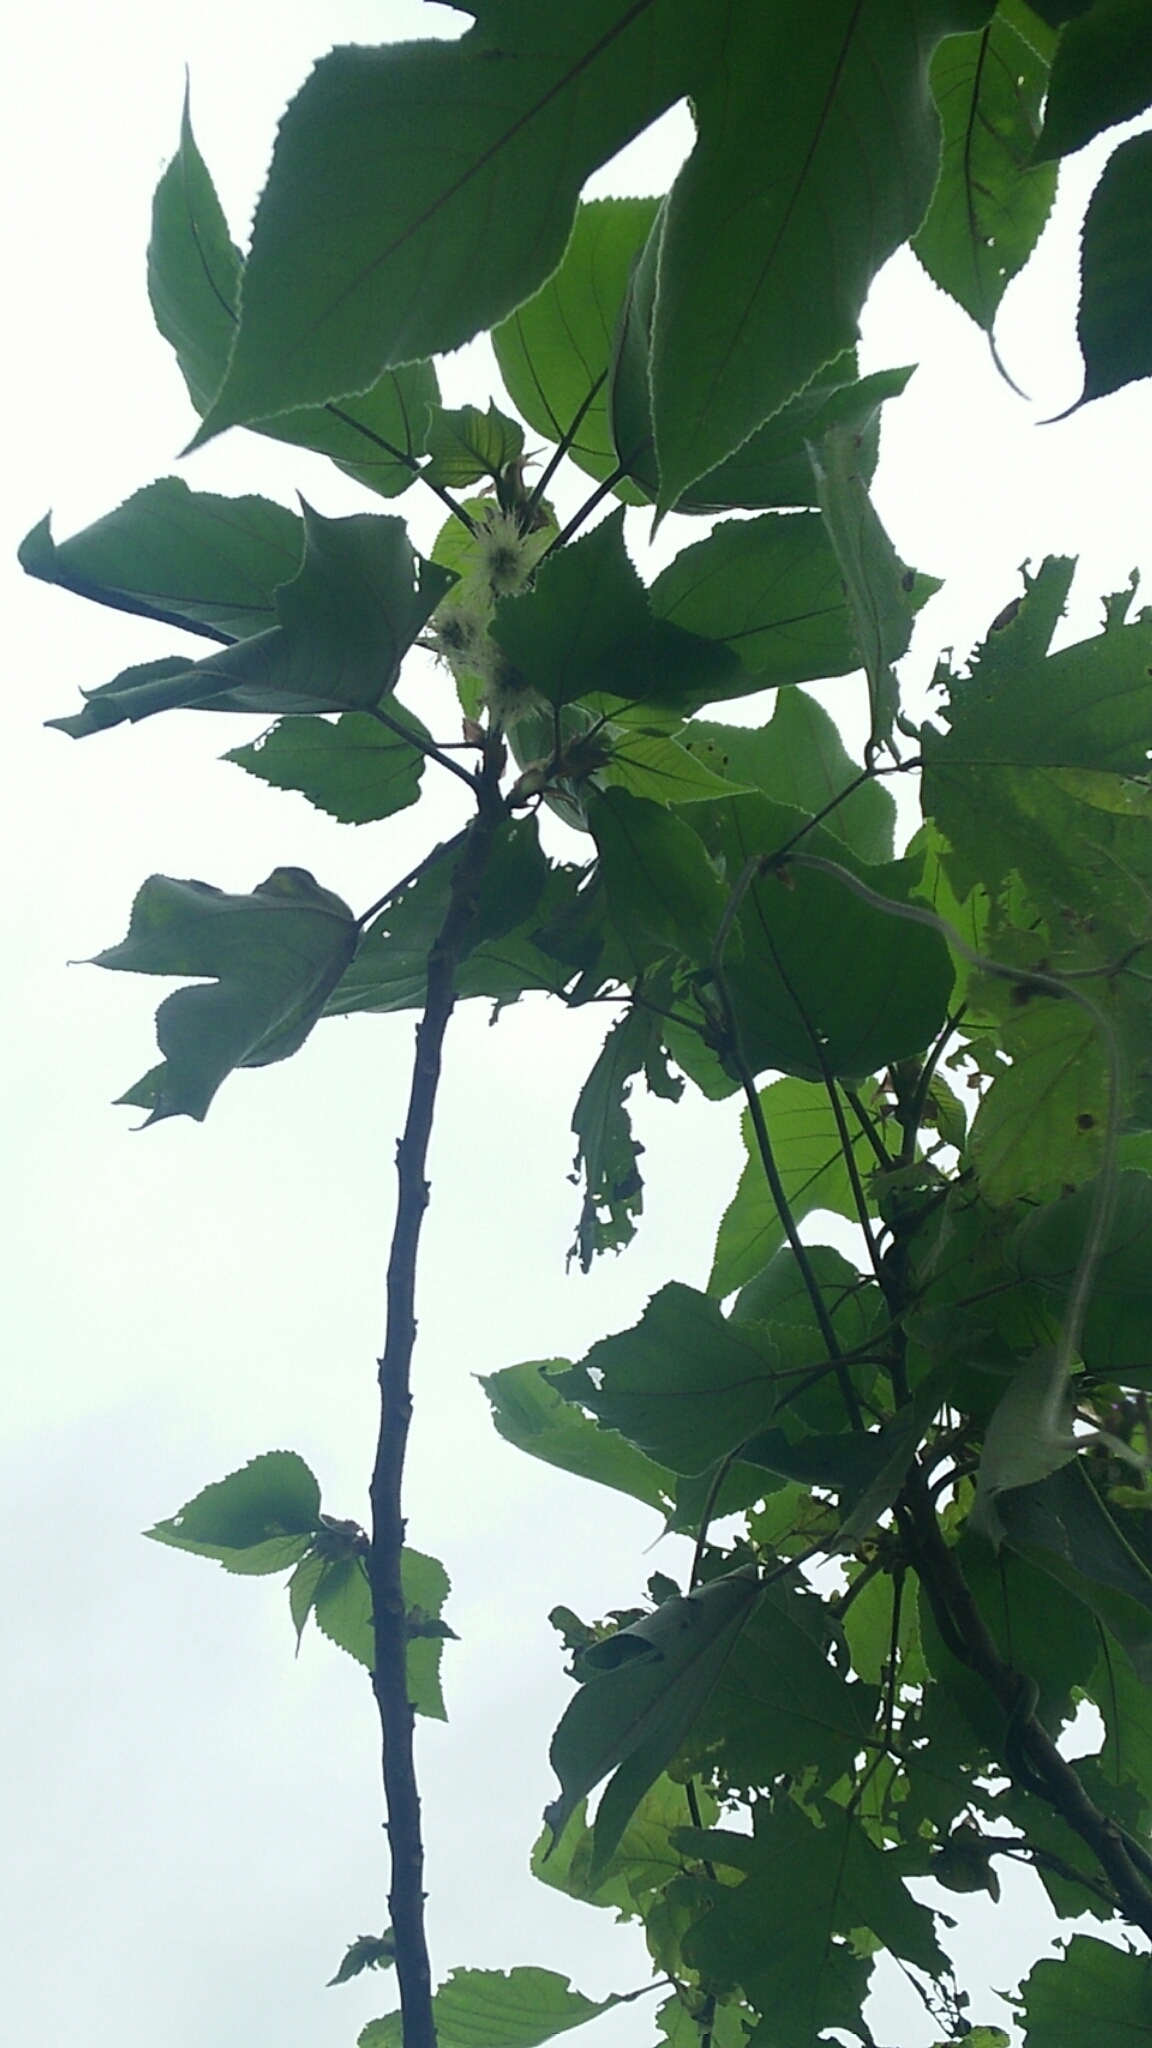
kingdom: Plantae
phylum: Tracheophyta
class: Magnoliopsida
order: Rosales
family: Moraceae
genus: Broussonetia
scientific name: Broussonetia papyrifera
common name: Paper mulberry
